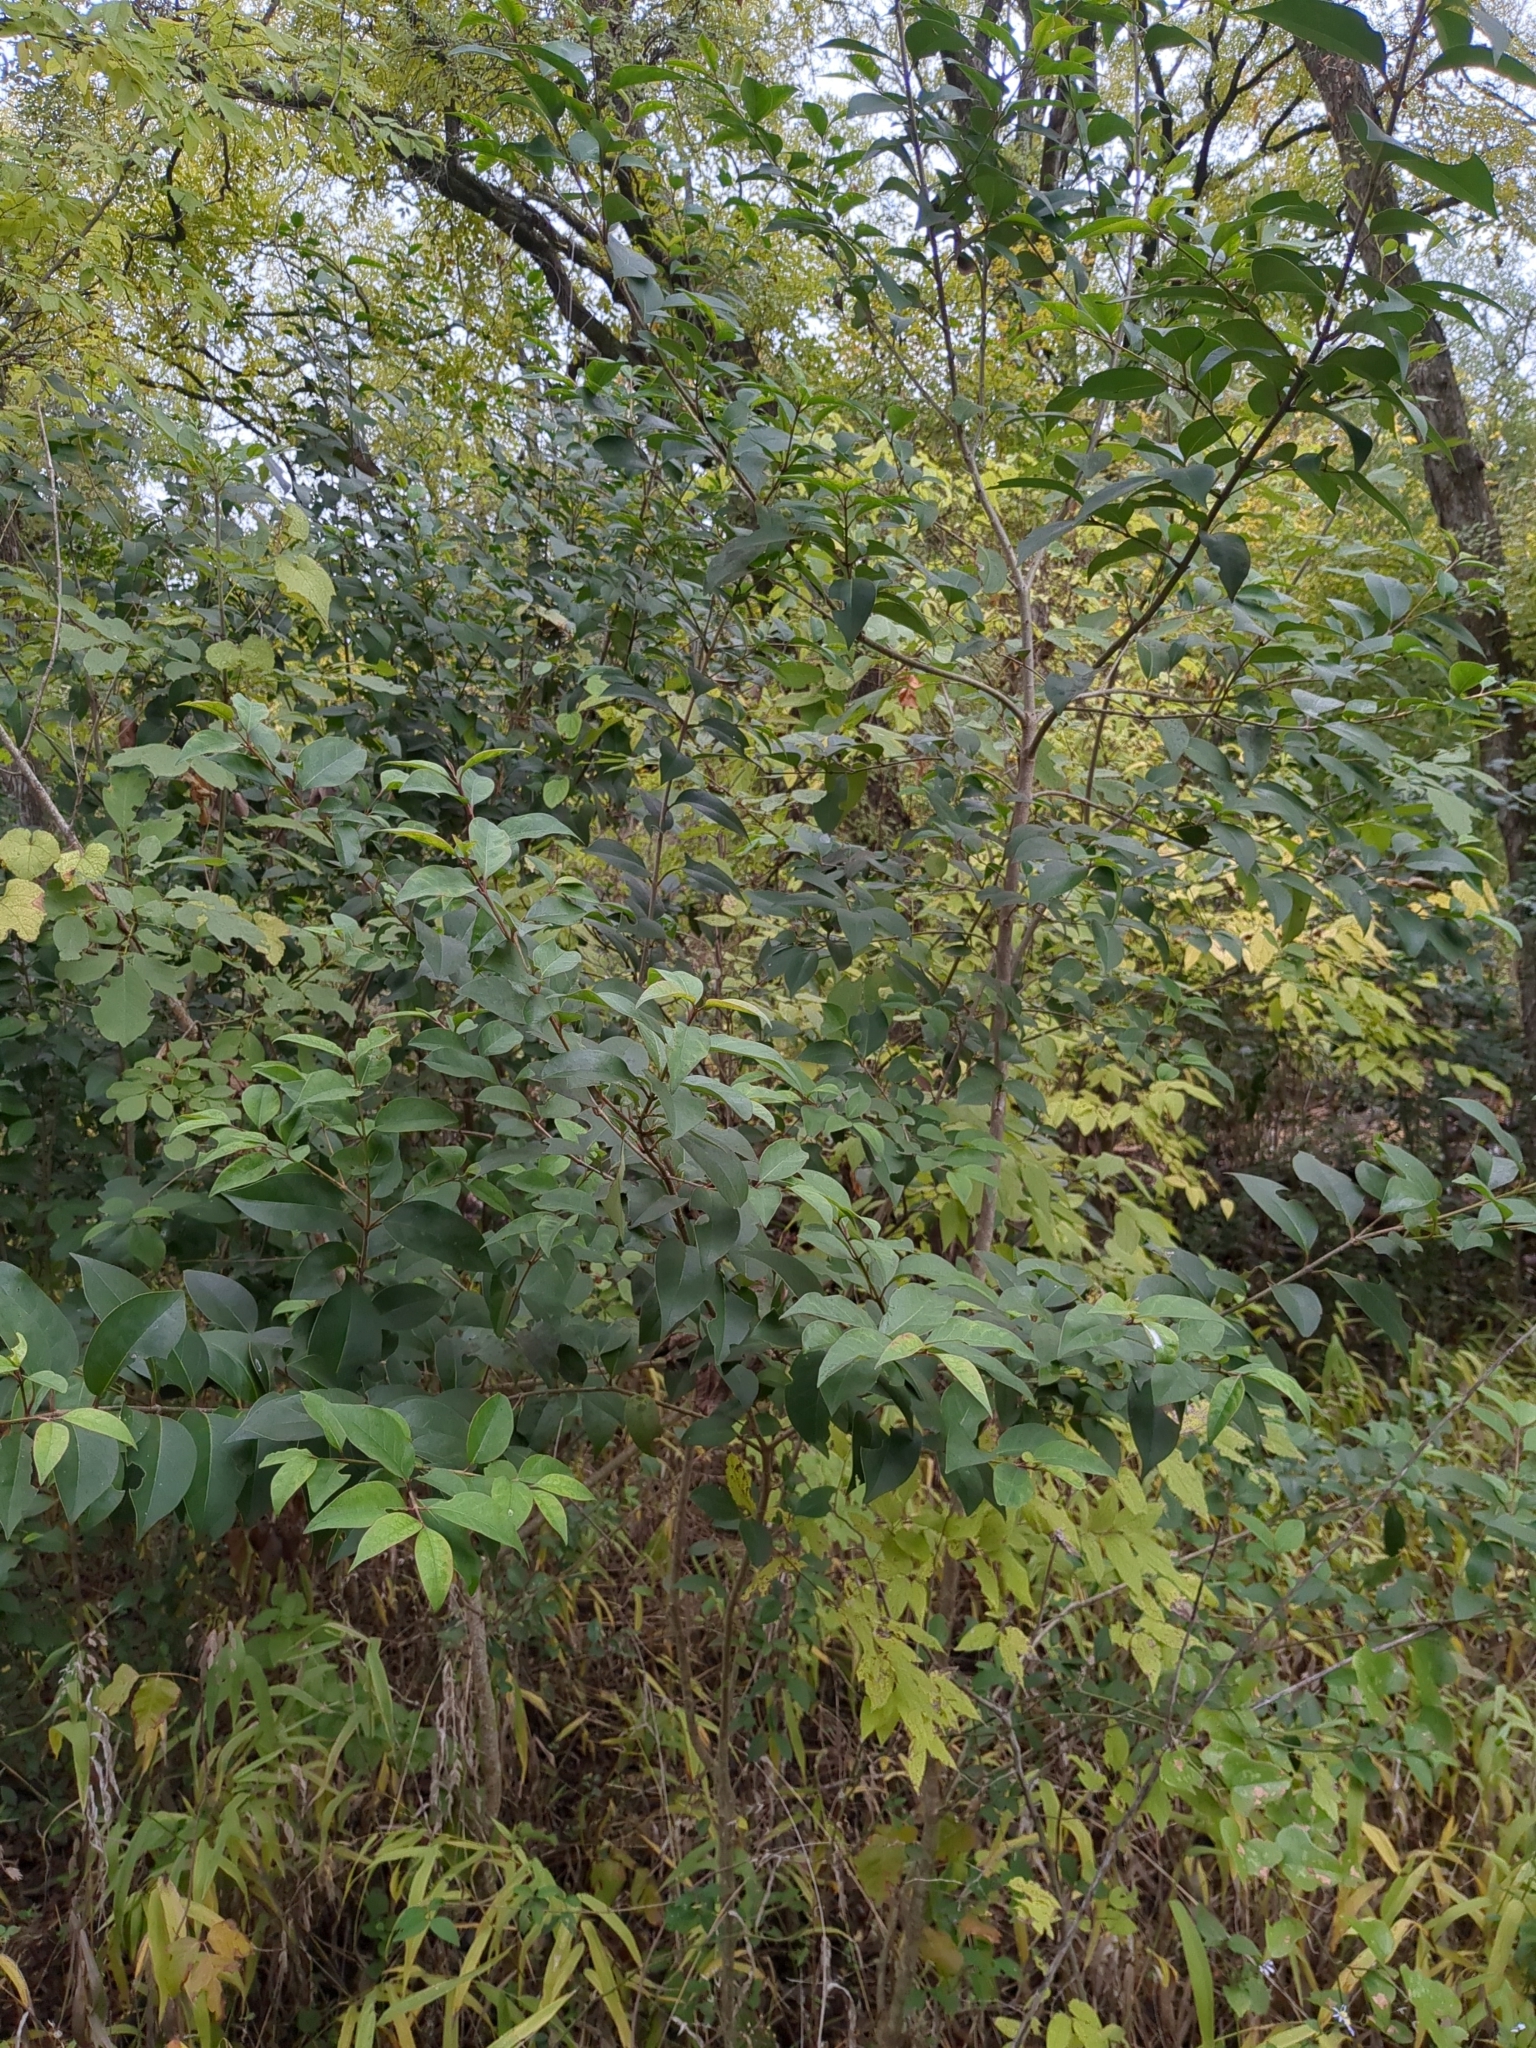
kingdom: Plantae
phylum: Tracheophyta
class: Magnoliopsida
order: Lamiales
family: Oleaceae
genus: Ligustrum
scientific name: Ligustrum lucidum
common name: Glossy privet
